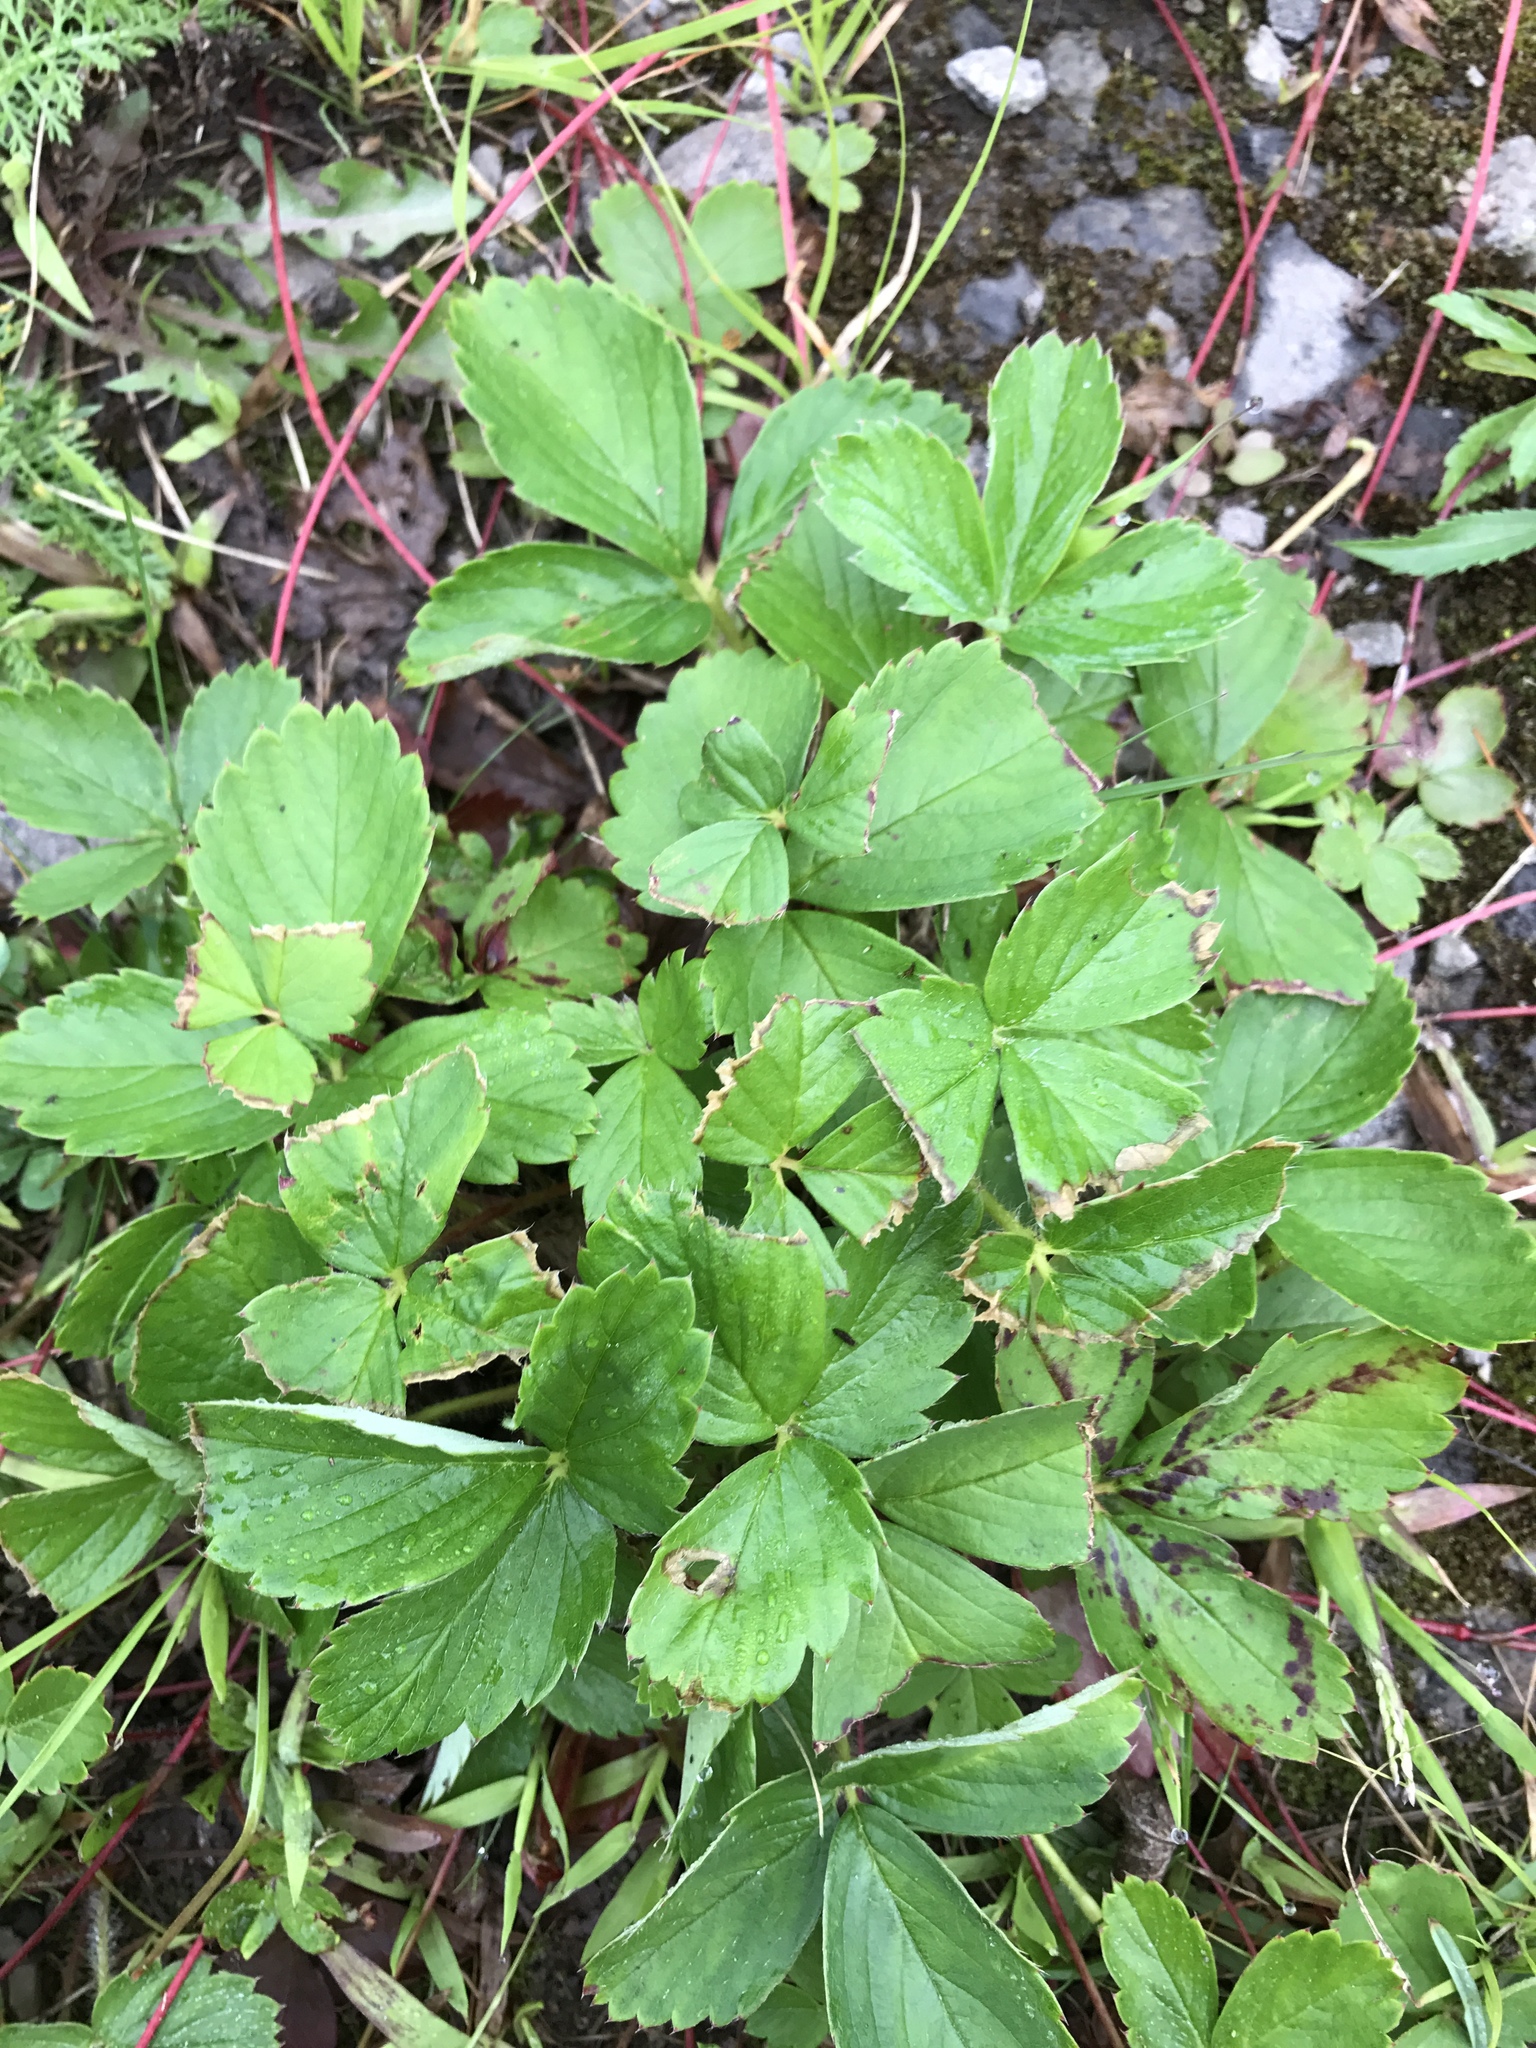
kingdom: Plantae
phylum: Tracheophyta
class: Magnoliopsida
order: Rosales
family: Rosaceae
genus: Fragaria
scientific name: Fragaria virginiana
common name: Thickleaved wild strawberry
